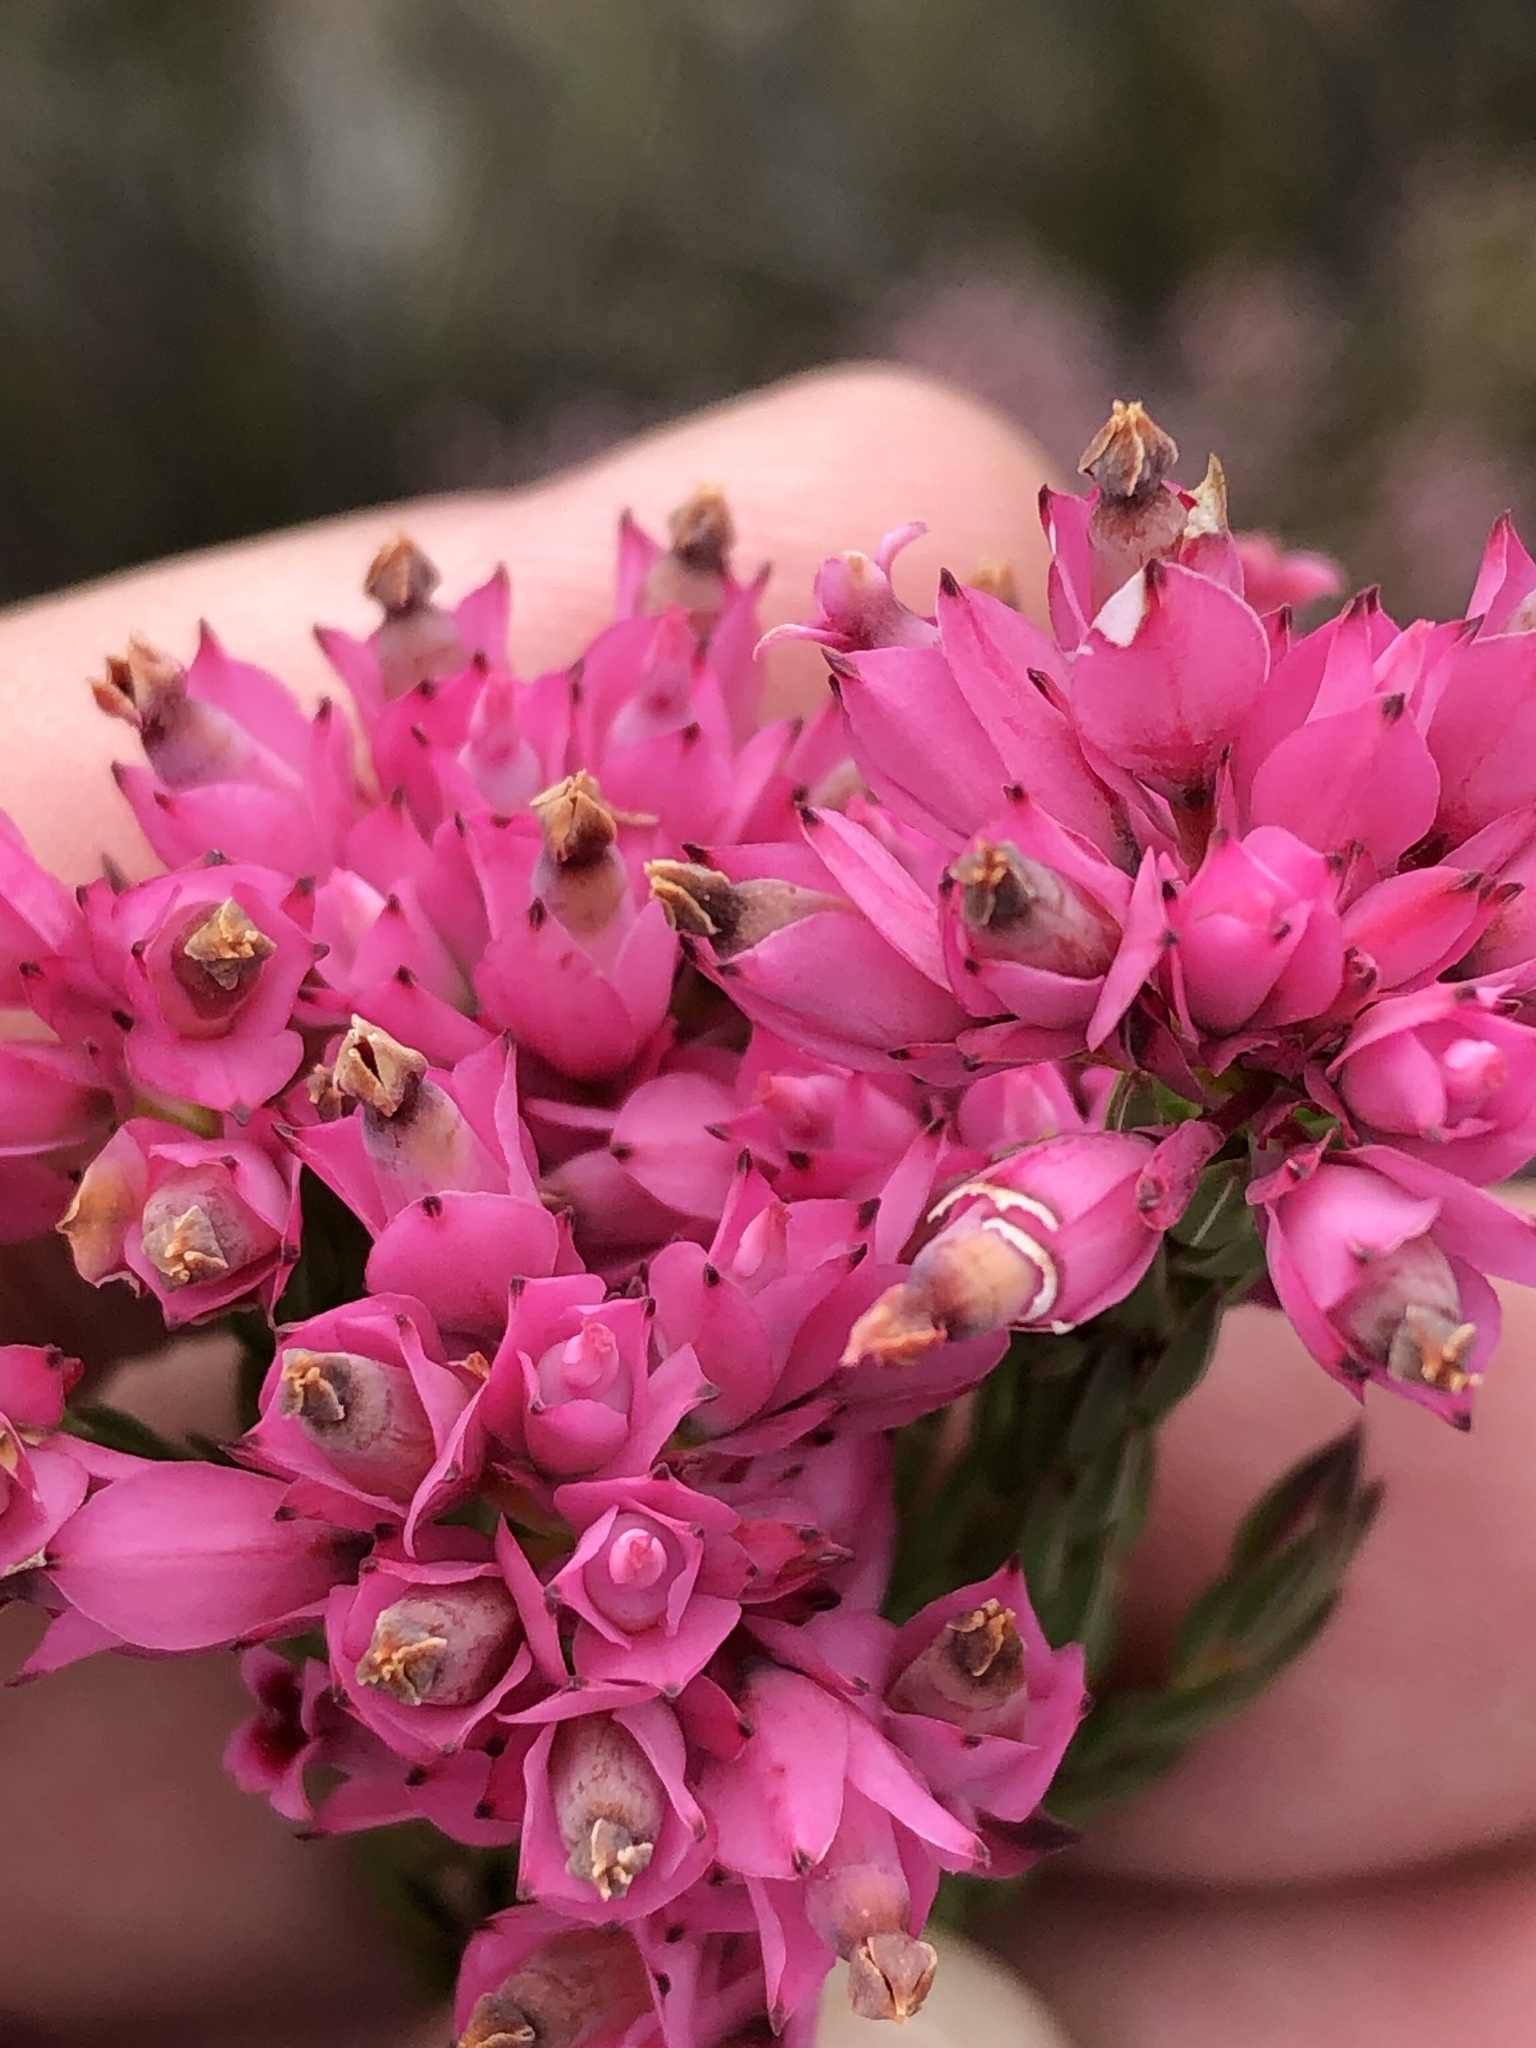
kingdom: Plantae
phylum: Tracheophyta
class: Magnoliopsida
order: Ericales
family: Ericaceae
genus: Erica
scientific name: Erica taxifolia
